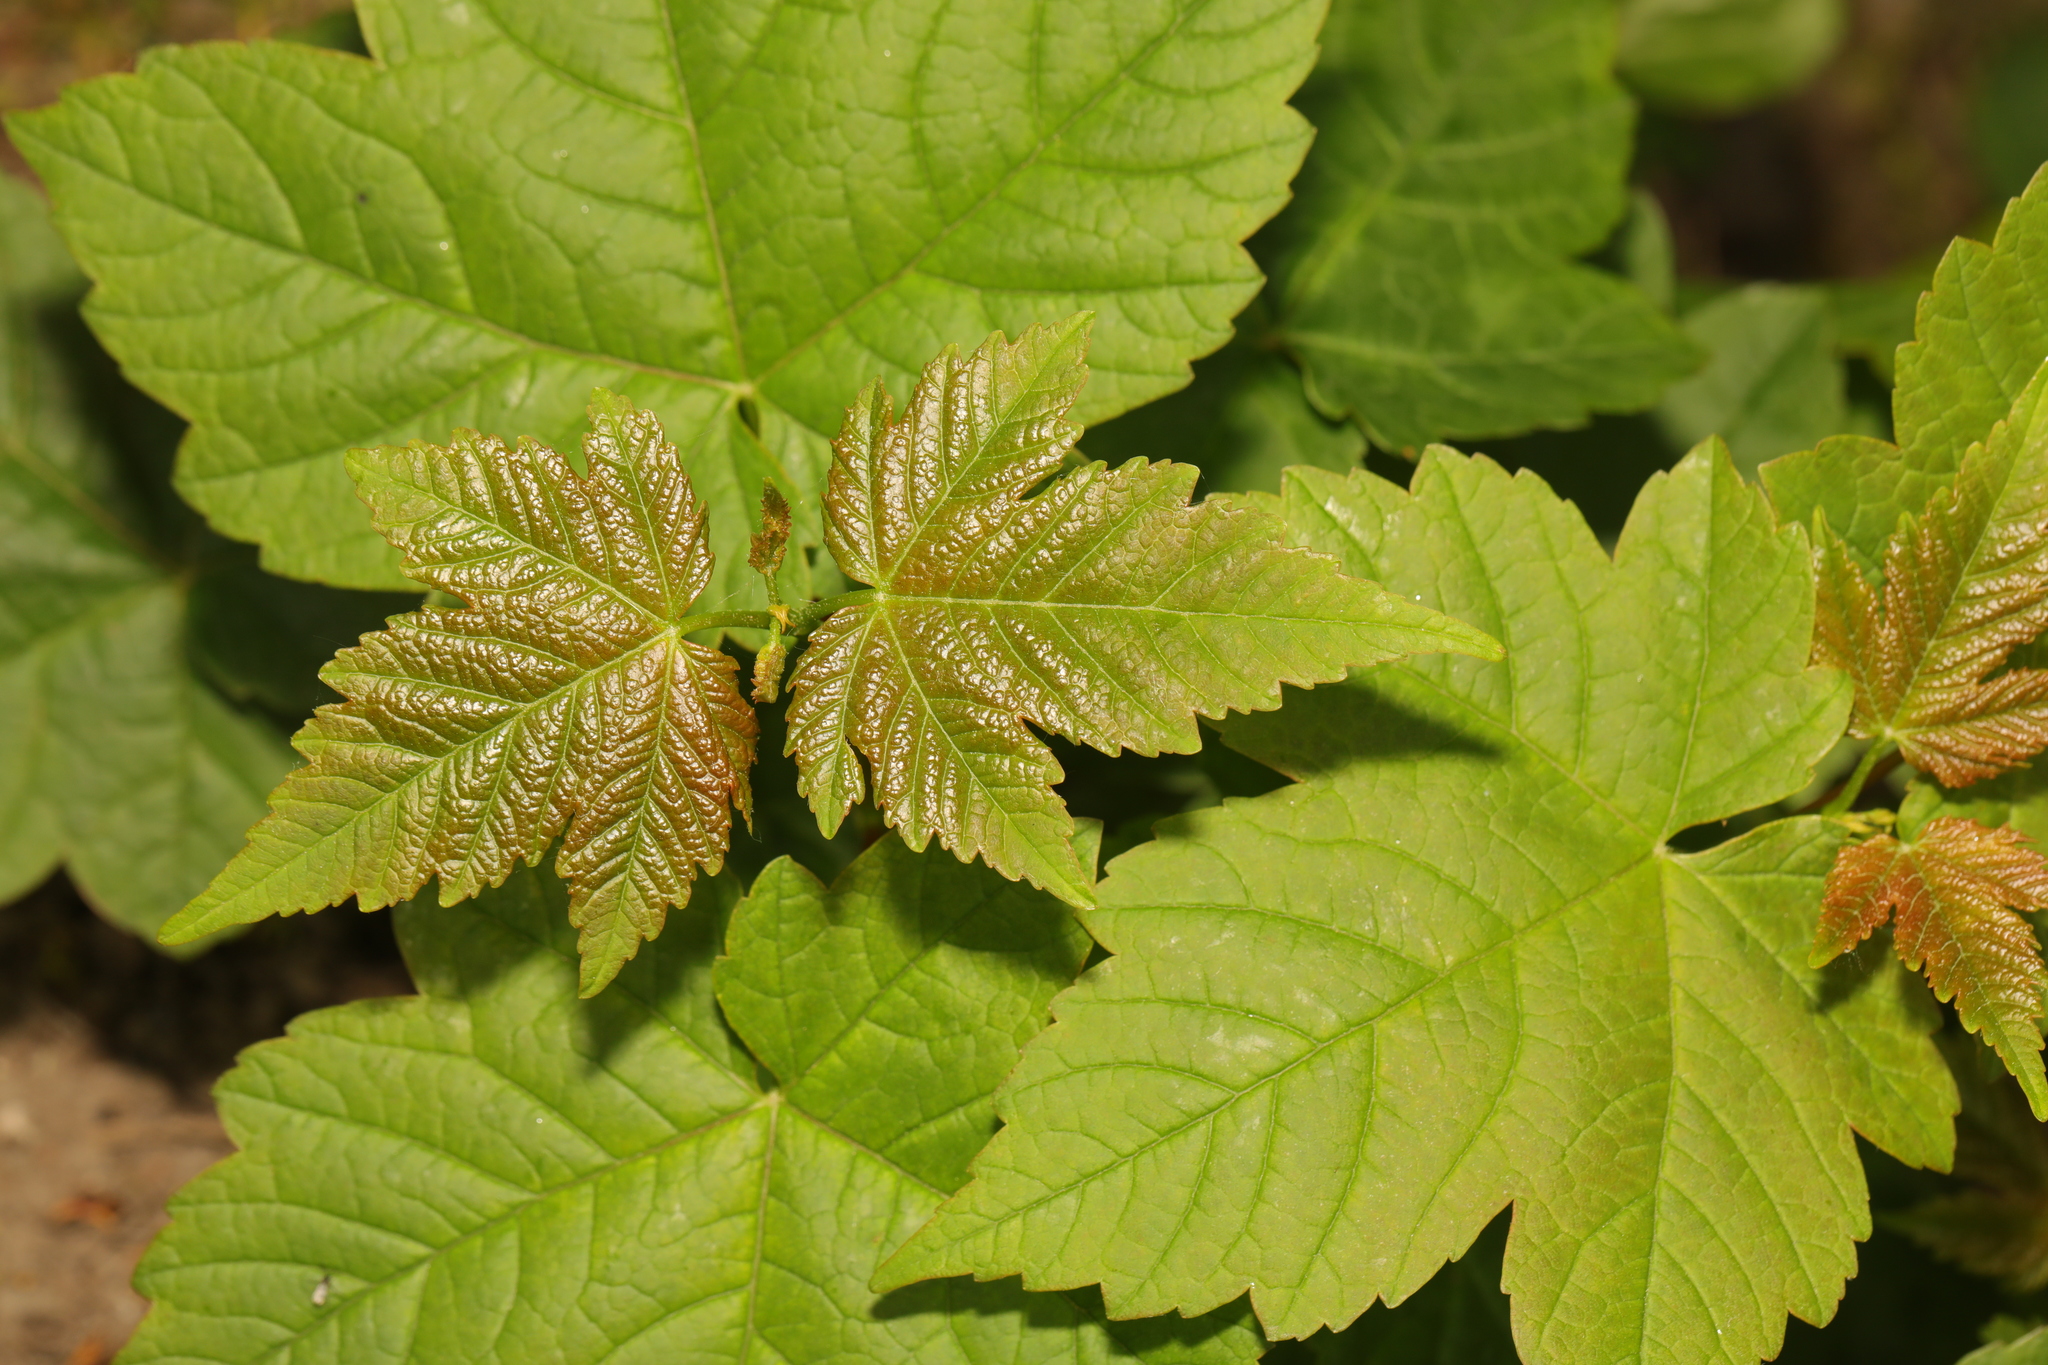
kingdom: Plantae
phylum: Tracheophyta
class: Magnoliopsida
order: Sapindales
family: Sapindaceae
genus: Acer
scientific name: Acer pseudoplatanus
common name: Sycamore
